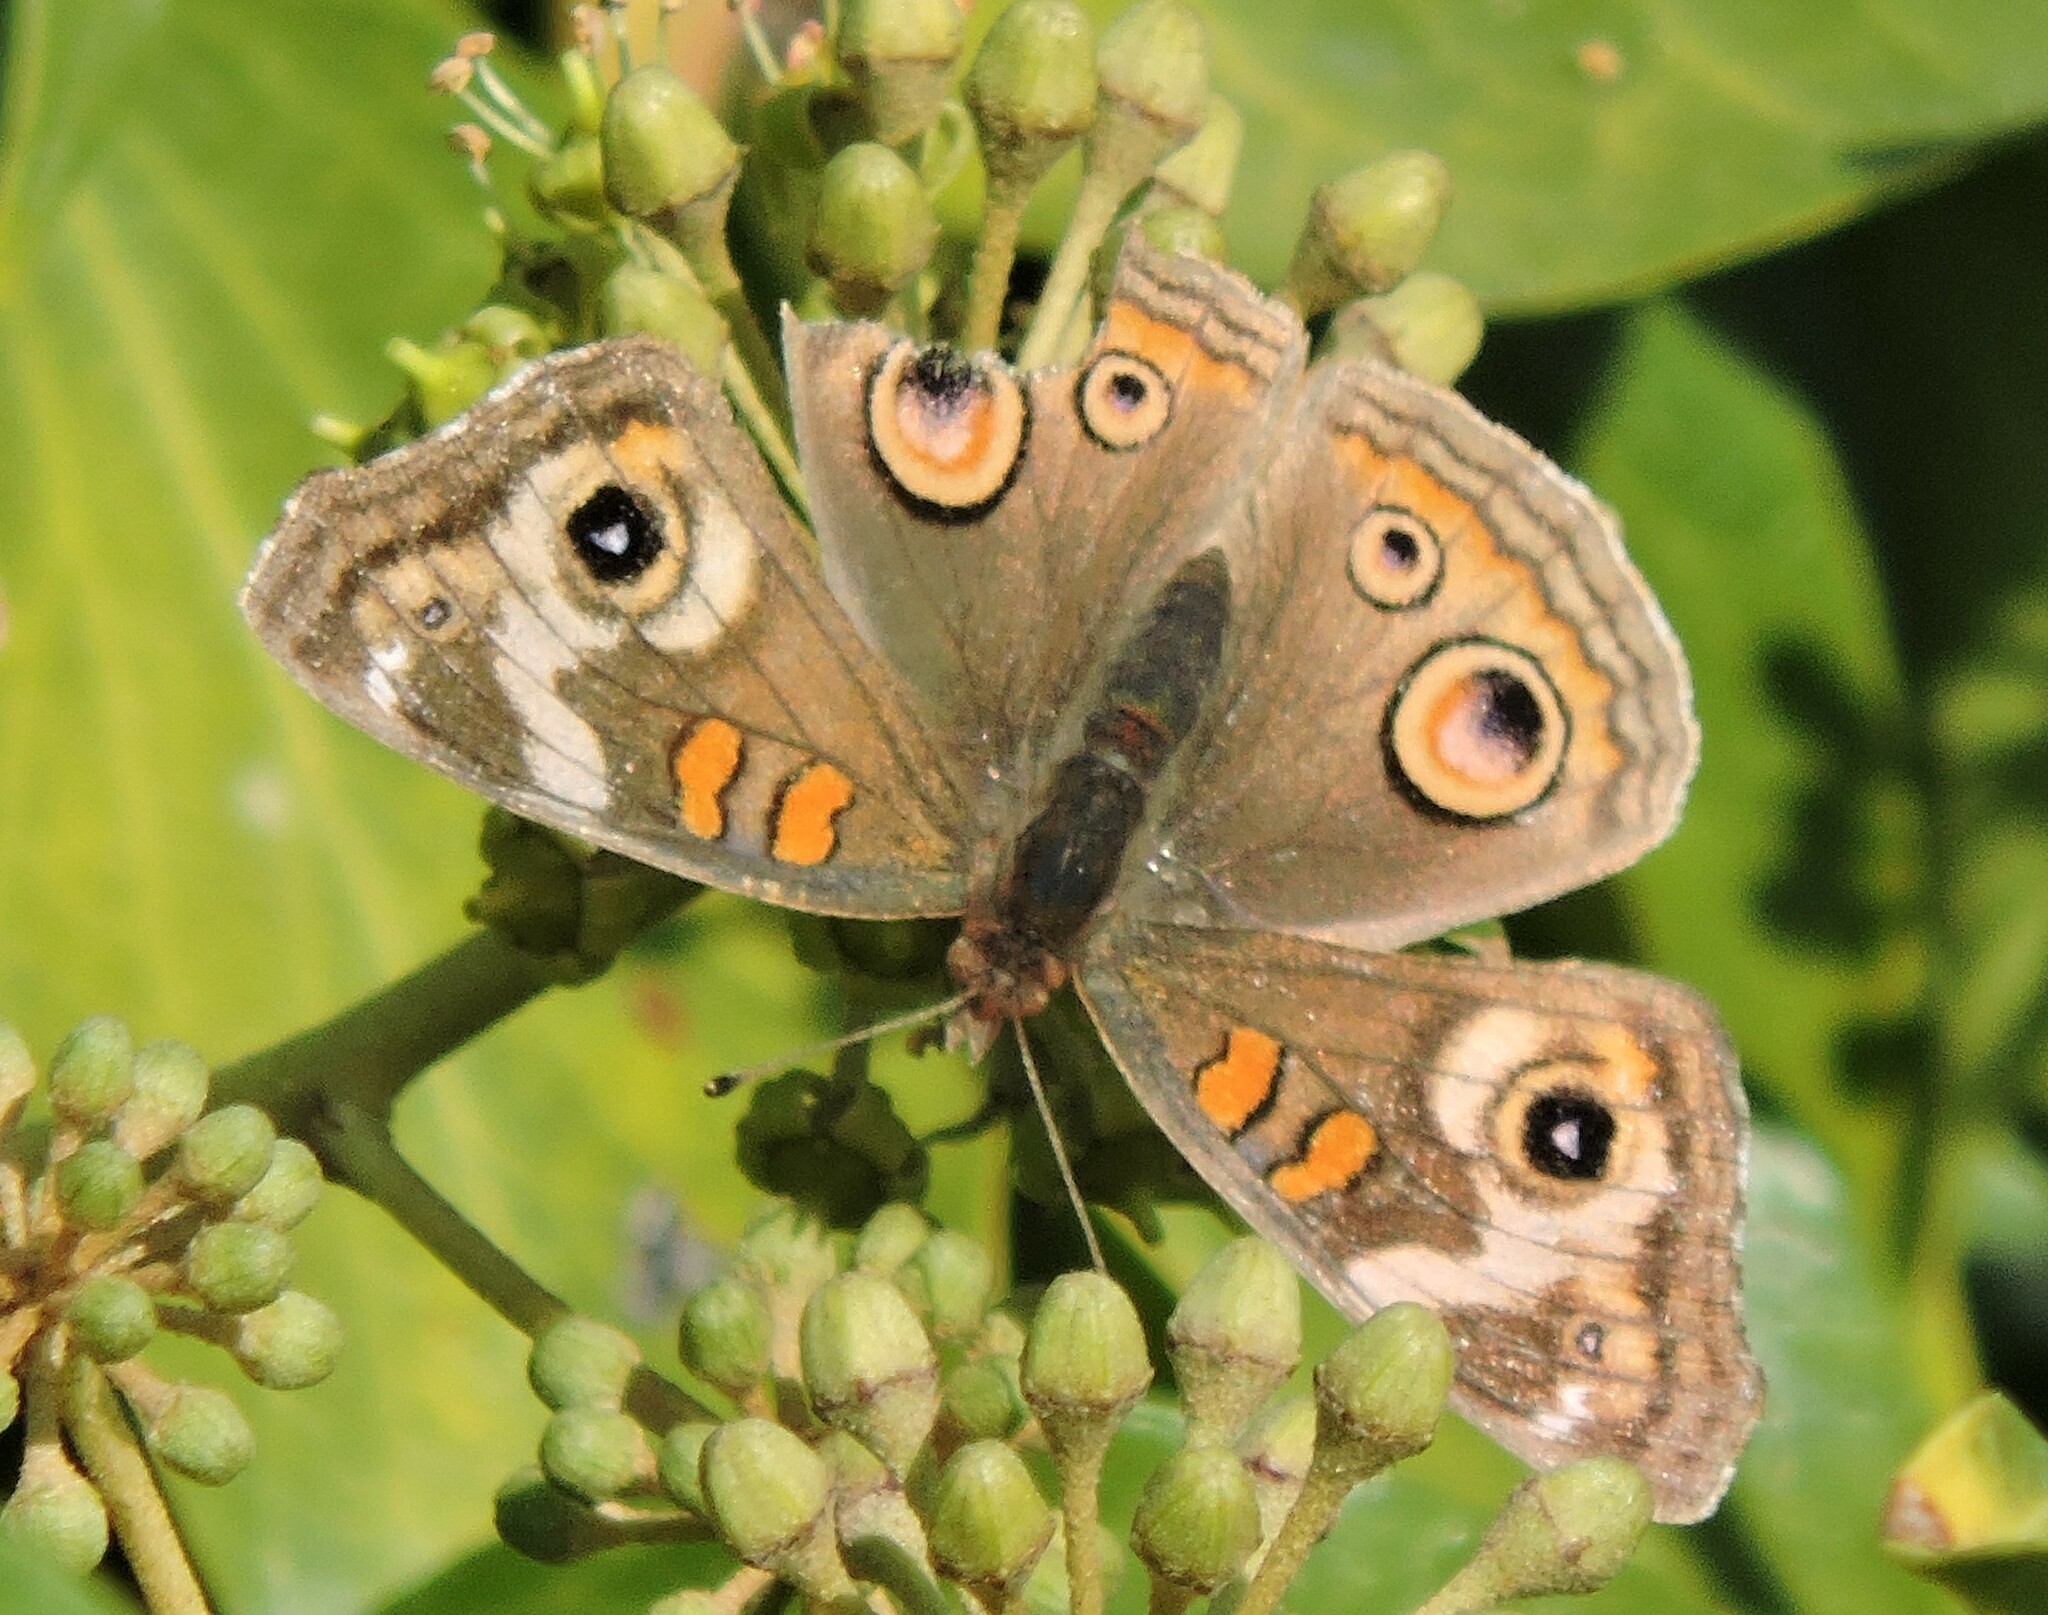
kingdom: Animalia
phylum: Arthropoda
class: Insecta
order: Lepidoptera
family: Nymphalidae
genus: Junonia
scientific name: Junonia grisea
